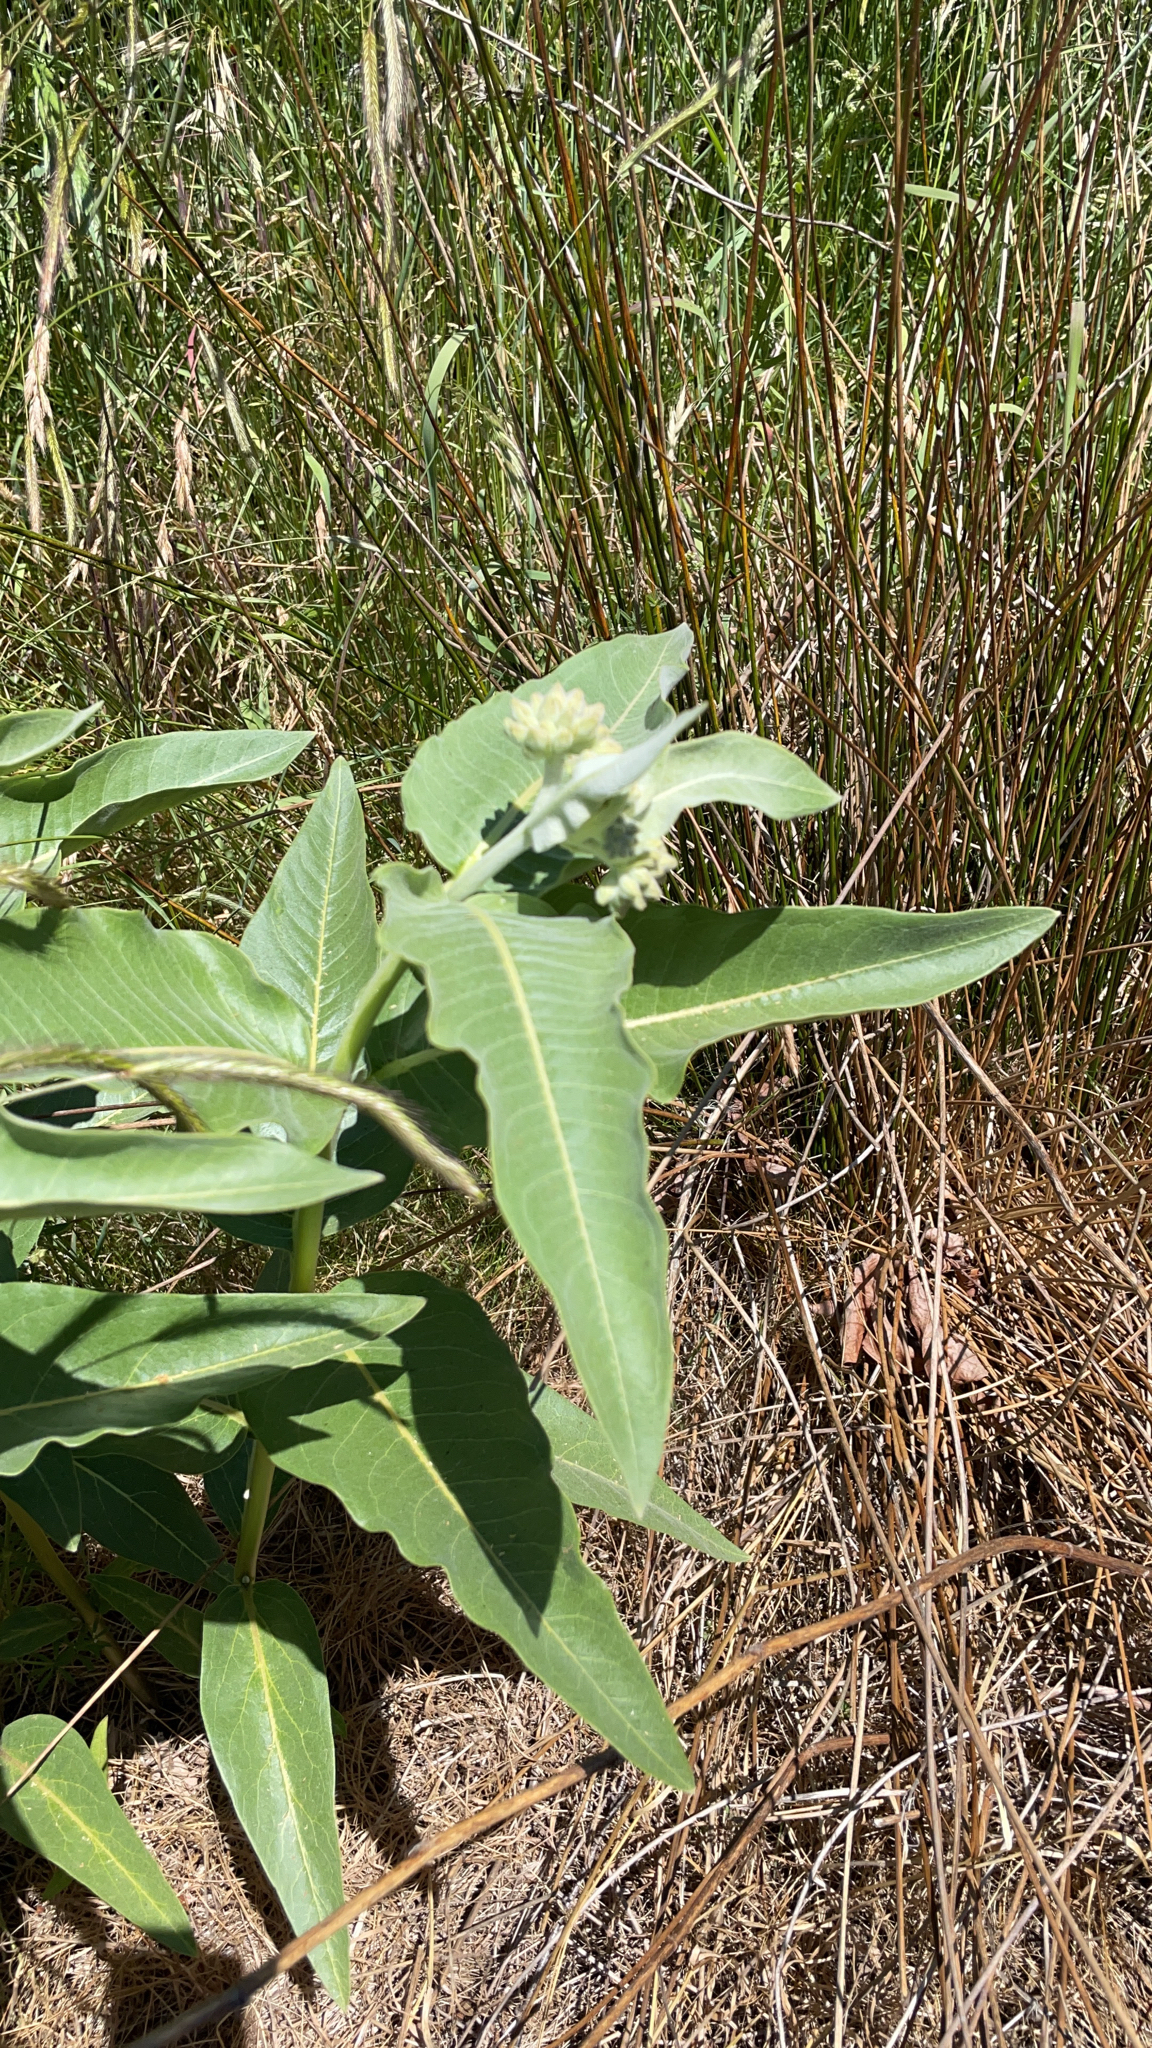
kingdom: Plantae
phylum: Tracheophyta
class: Magnoliopsida
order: Gentianales
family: Apocynaceae
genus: Asclepias
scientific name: Asclepias speciosa
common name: Showy milkweed
